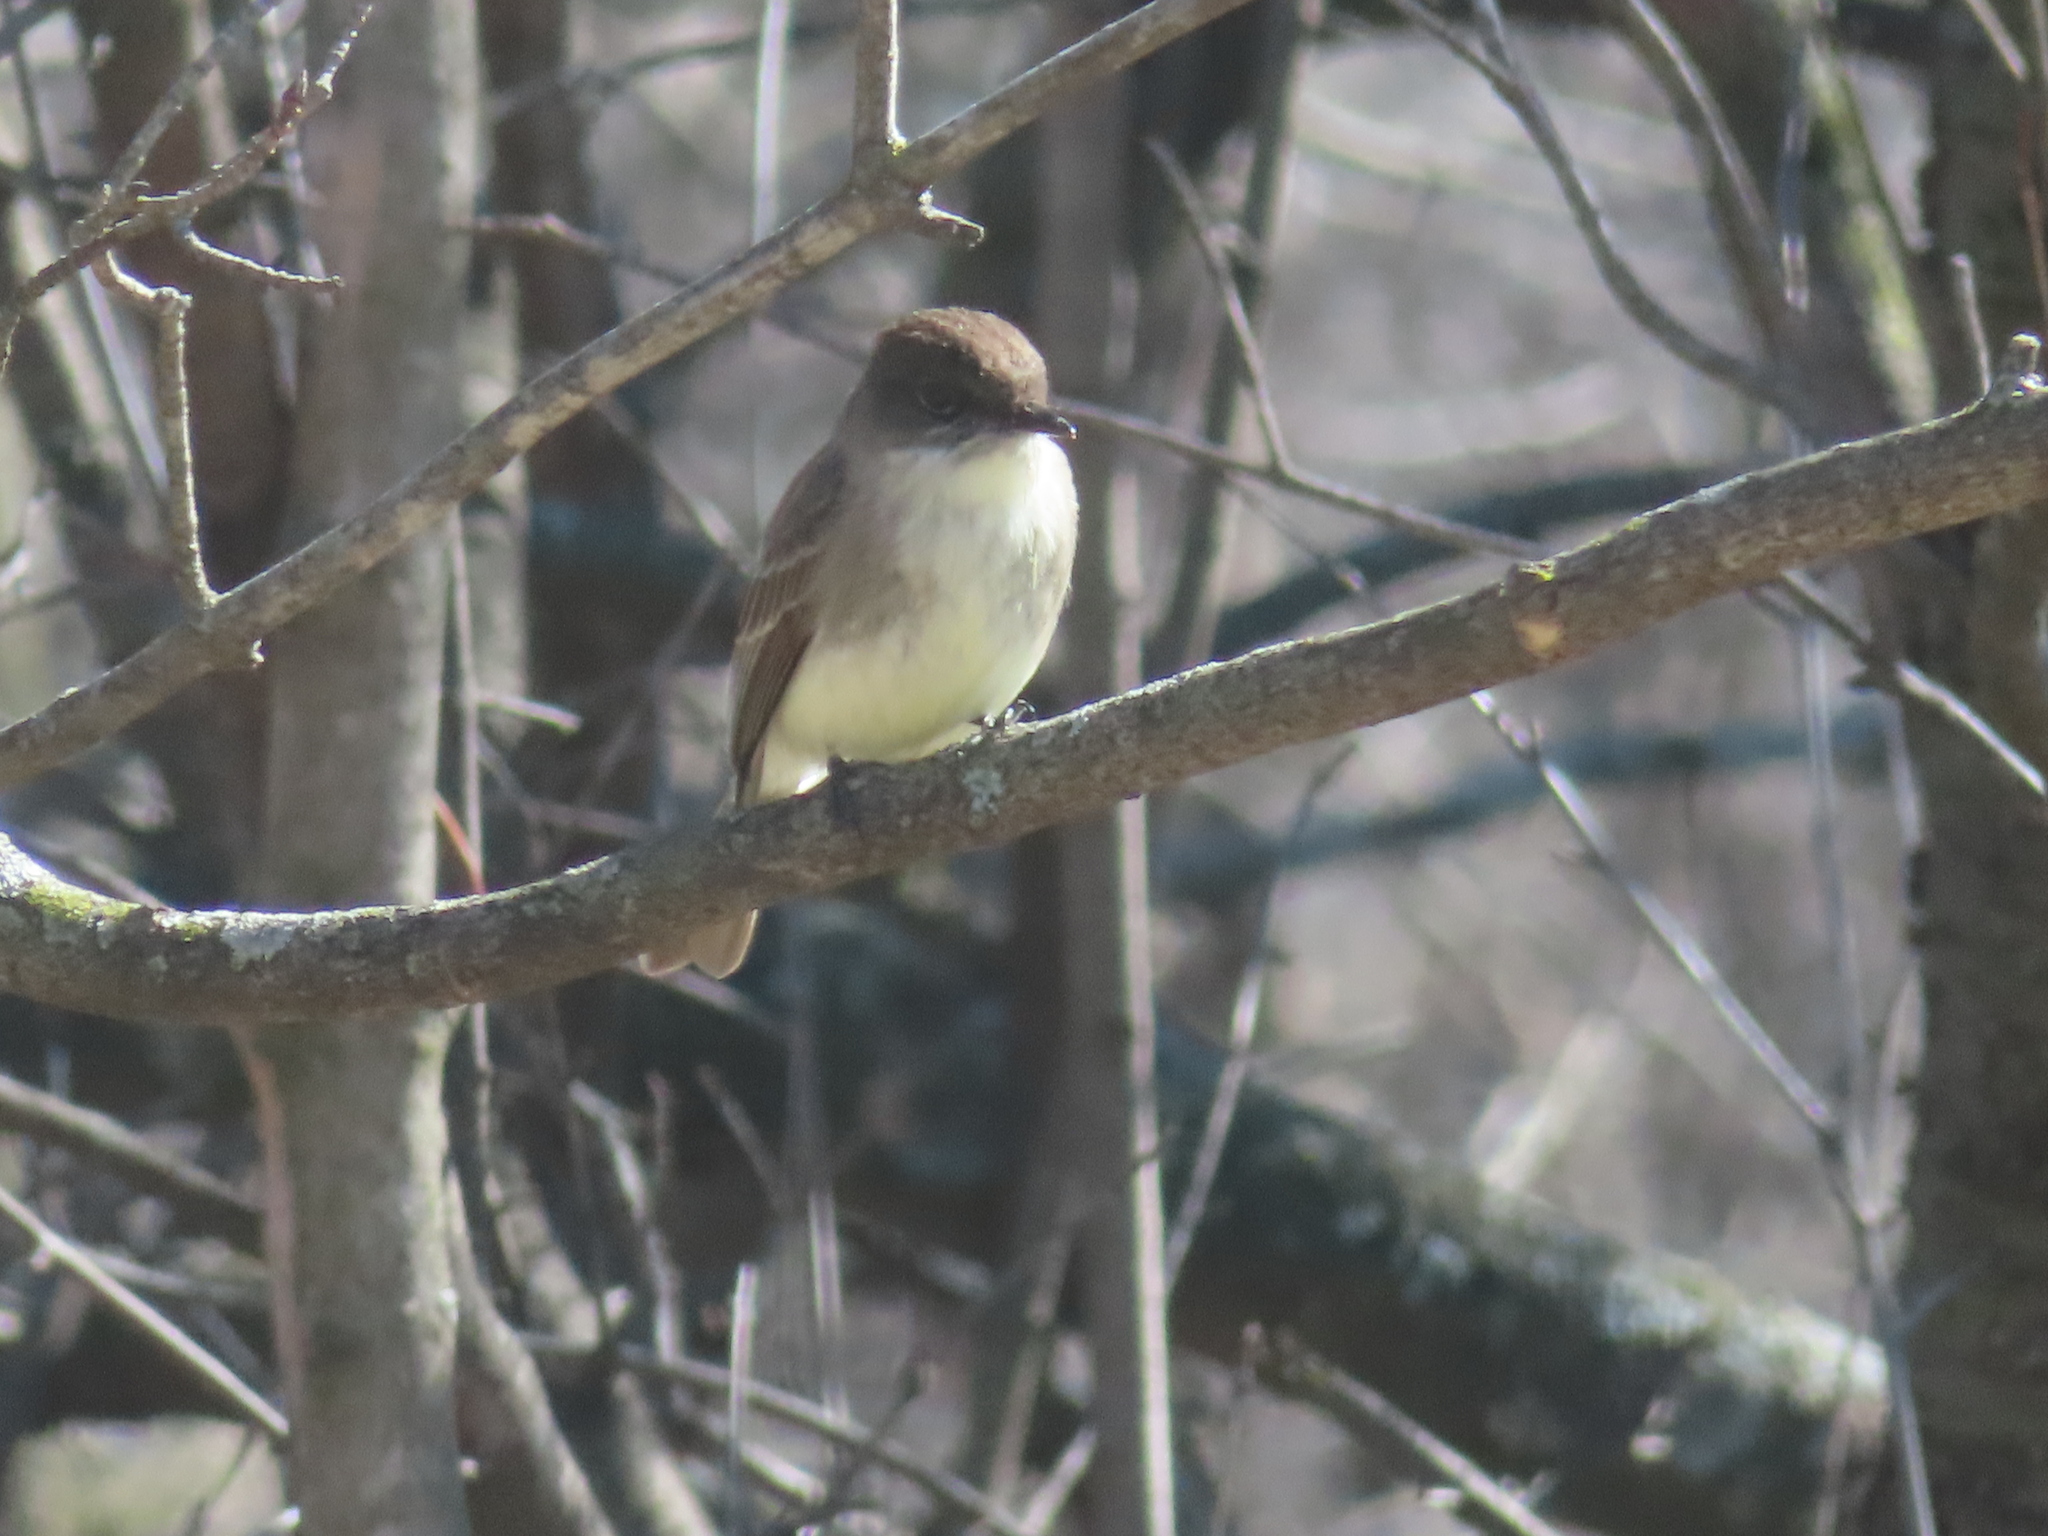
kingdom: Animalia
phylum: Chordata
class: Aves
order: Passeriformes
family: Tyrannidae
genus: Sayornis
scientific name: Sayornis phoebe
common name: Eastern phoebe
